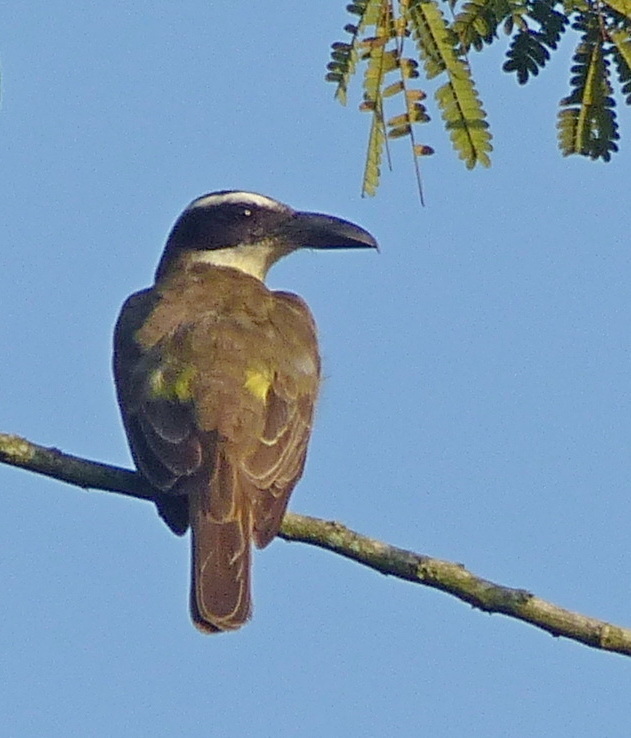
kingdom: Animalia
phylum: Chordata
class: Aves
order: Passeriformes
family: Tyrannidae
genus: Megarynchus
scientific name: Megarynchus pitangua
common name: Boat-billed flycatcher
